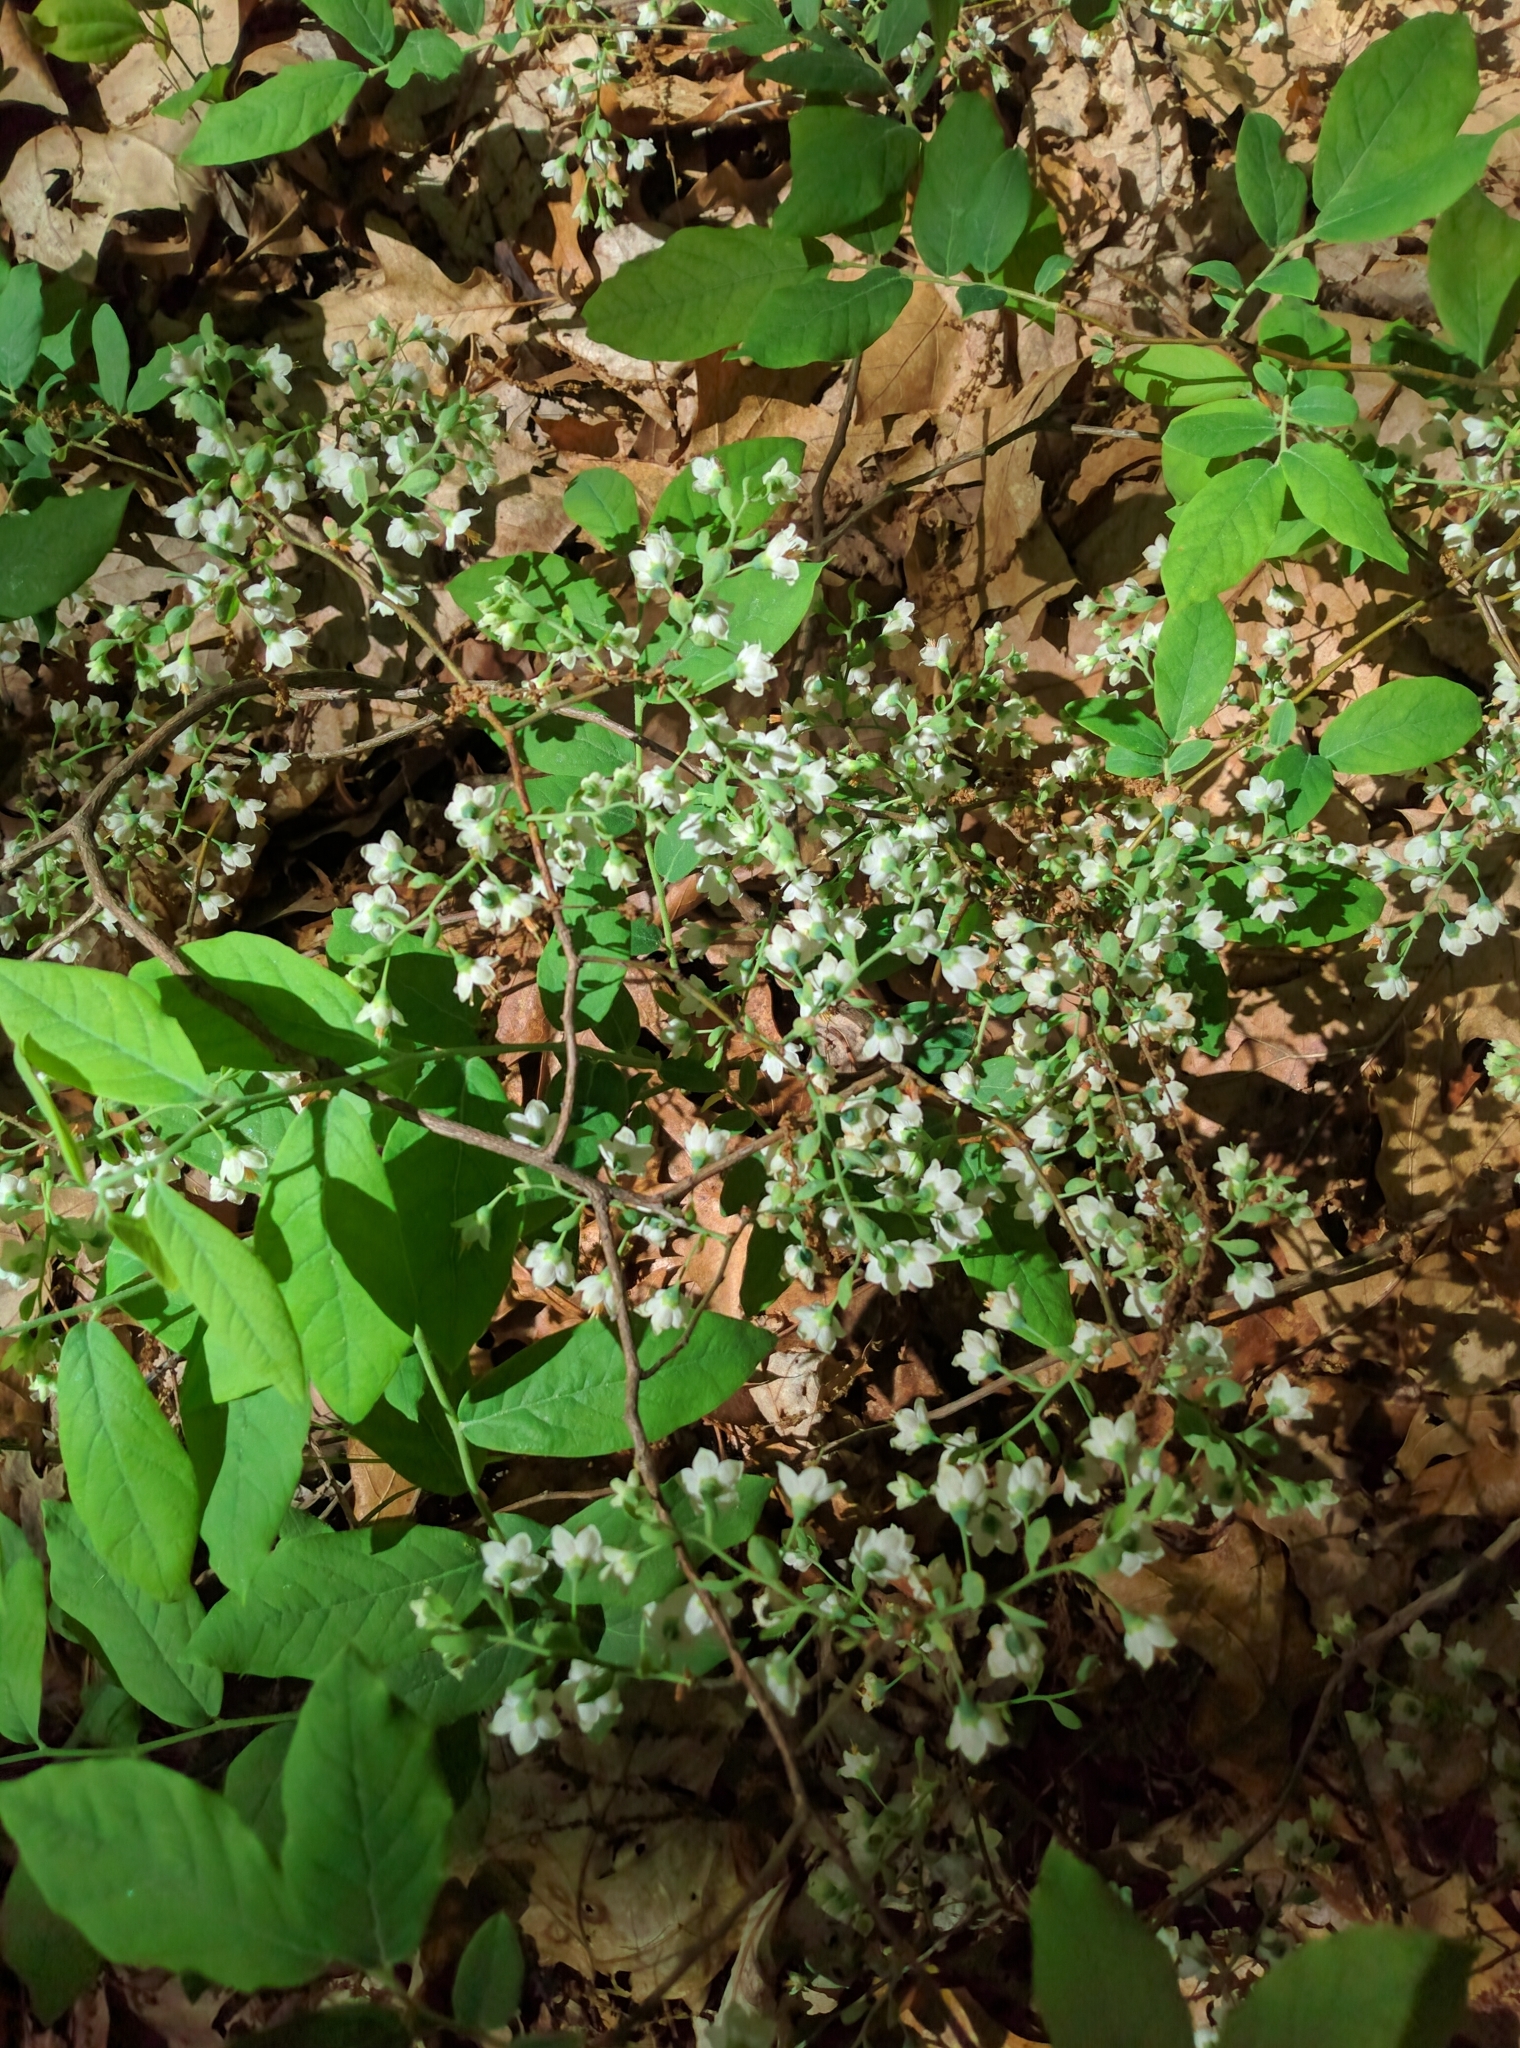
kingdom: Plantae
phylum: Tracheophyta
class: Magnoliopsida
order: Ericales
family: Ericaceae
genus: Vaccinium
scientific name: Vaccinium stamineum
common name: Deerberry
